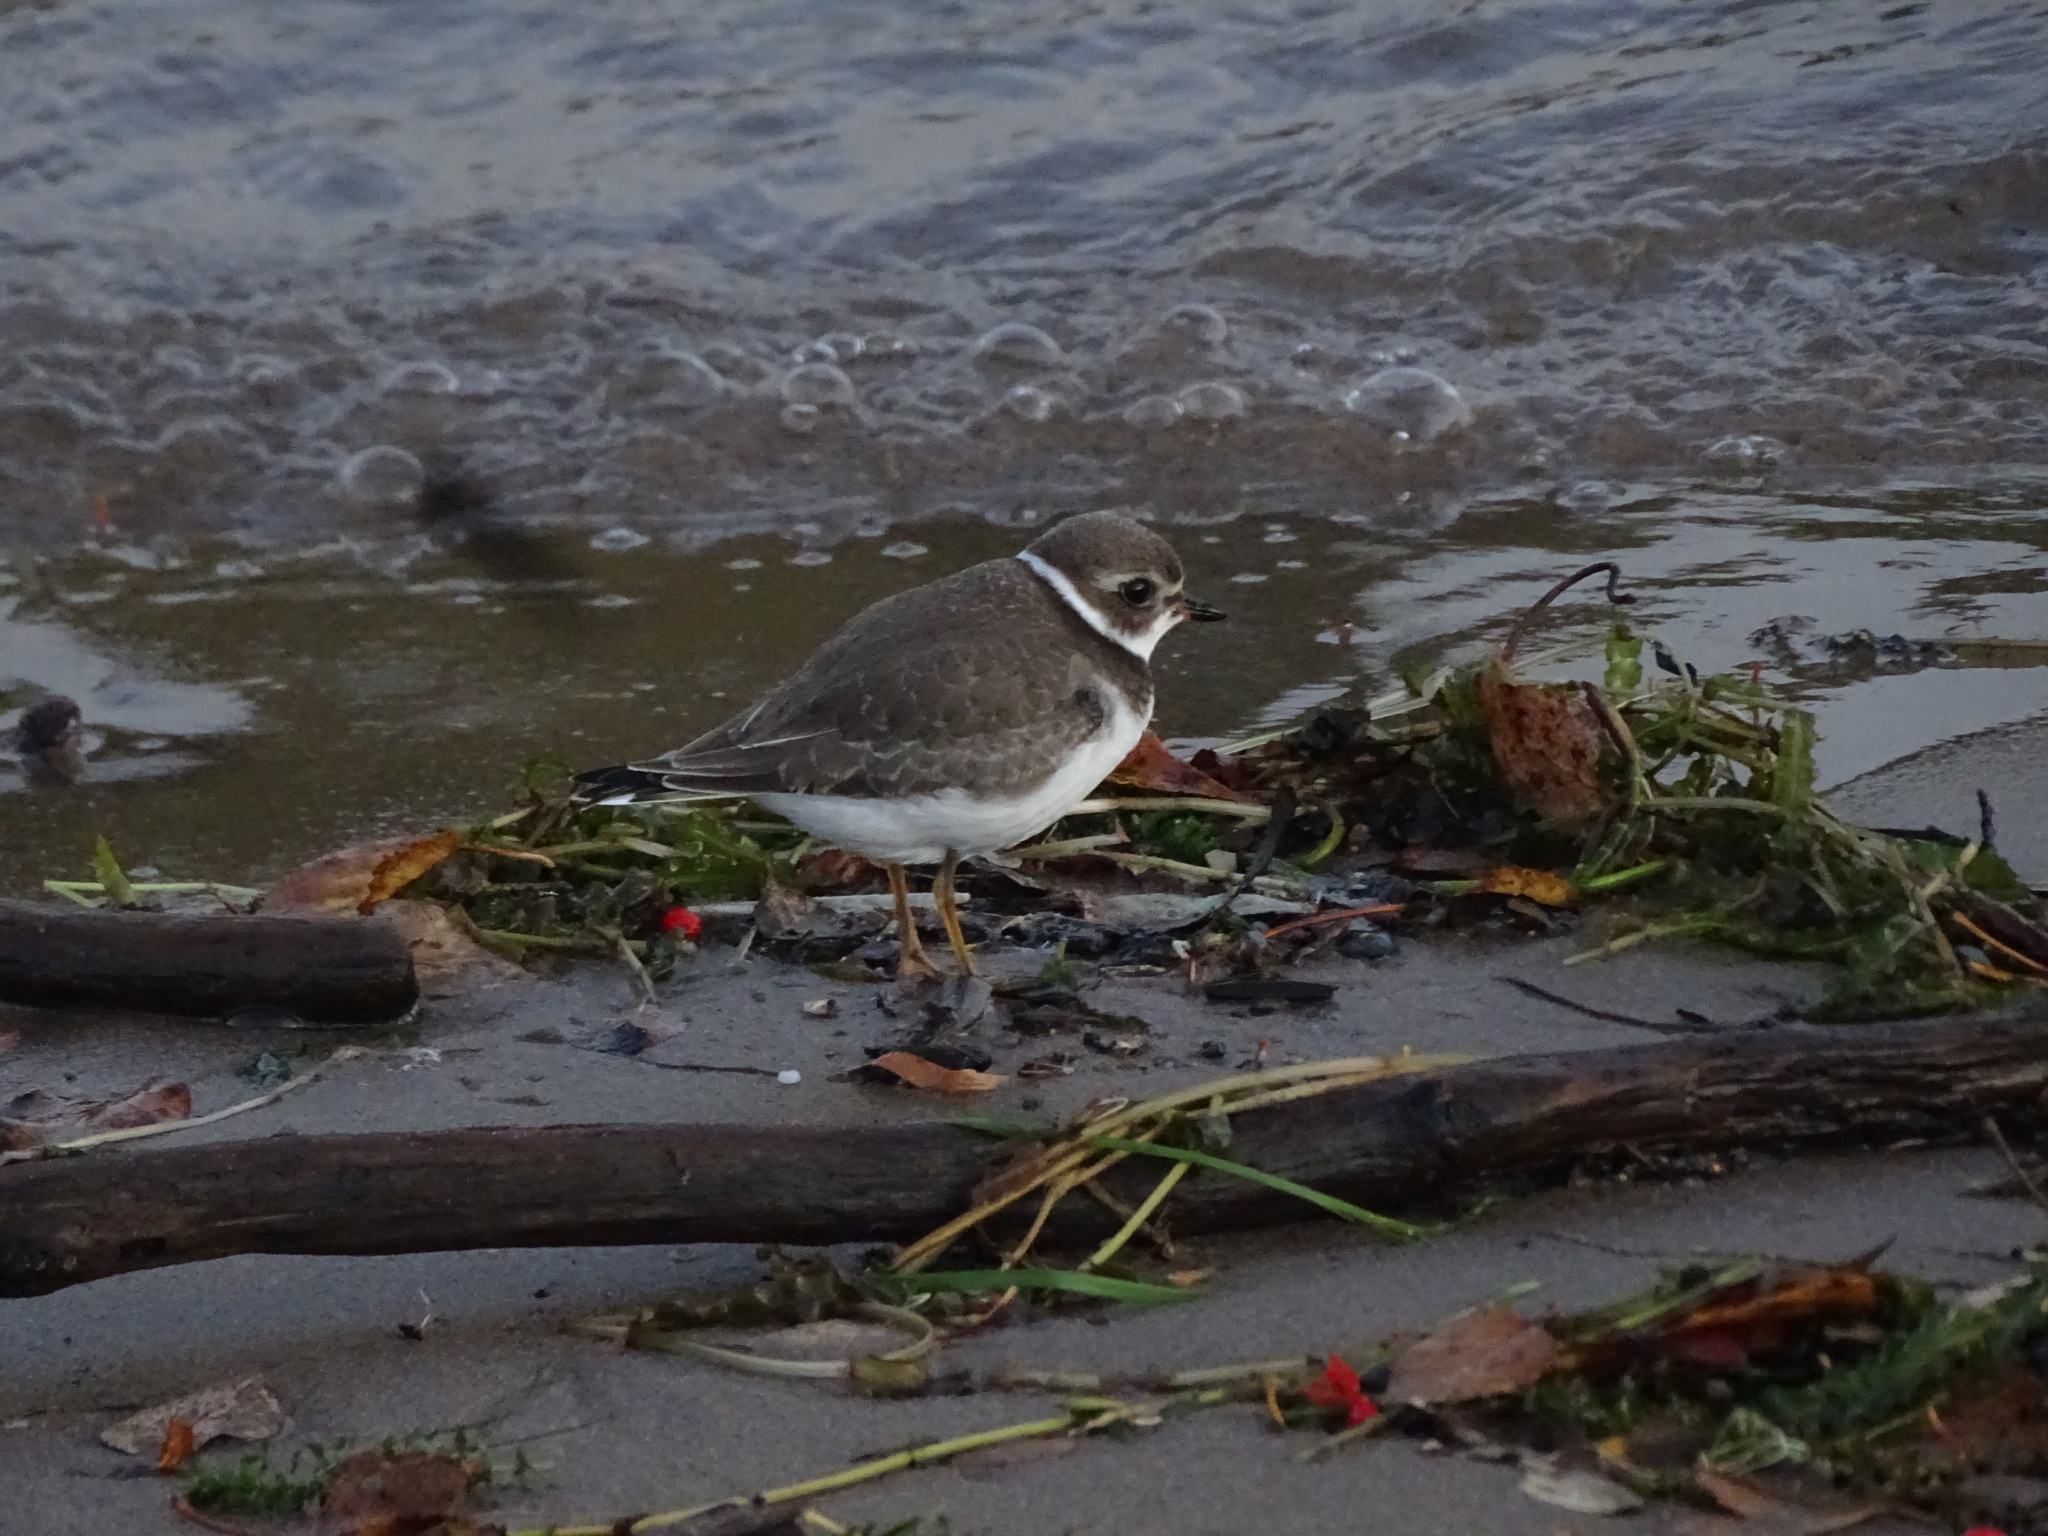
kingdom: Animalia
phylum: Chordata
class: Aves
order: Charadriiformes
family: Charadriidae
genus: Charadrius
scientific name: Charadrius semipalmatus
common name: Semipalmated plover
